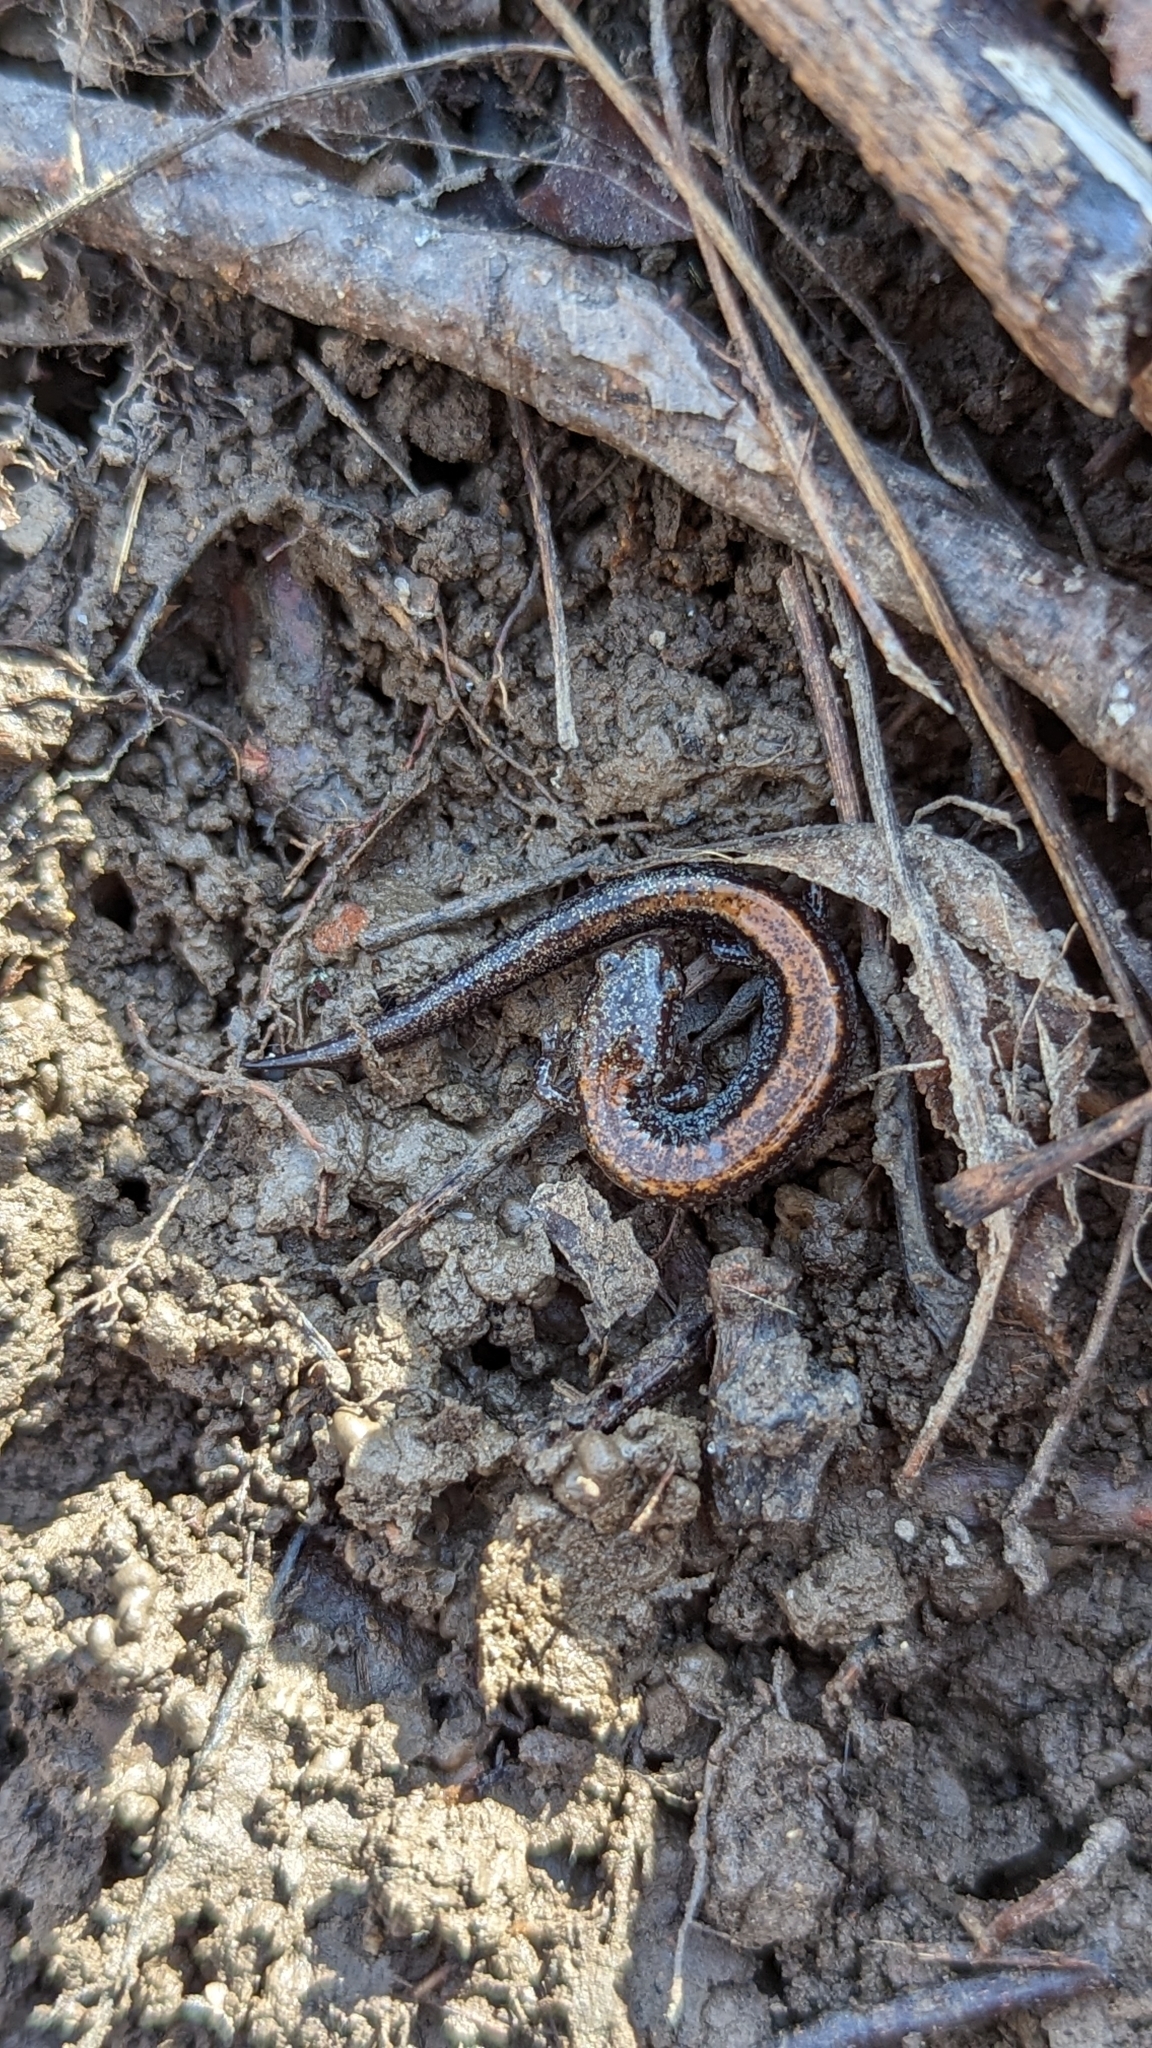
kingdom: Animalia
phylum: Chordata
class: Amphibia
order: Caudata
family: Plethodontidae
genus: Plethodon
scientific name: Plethodon cinereus
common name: Redback salamander
